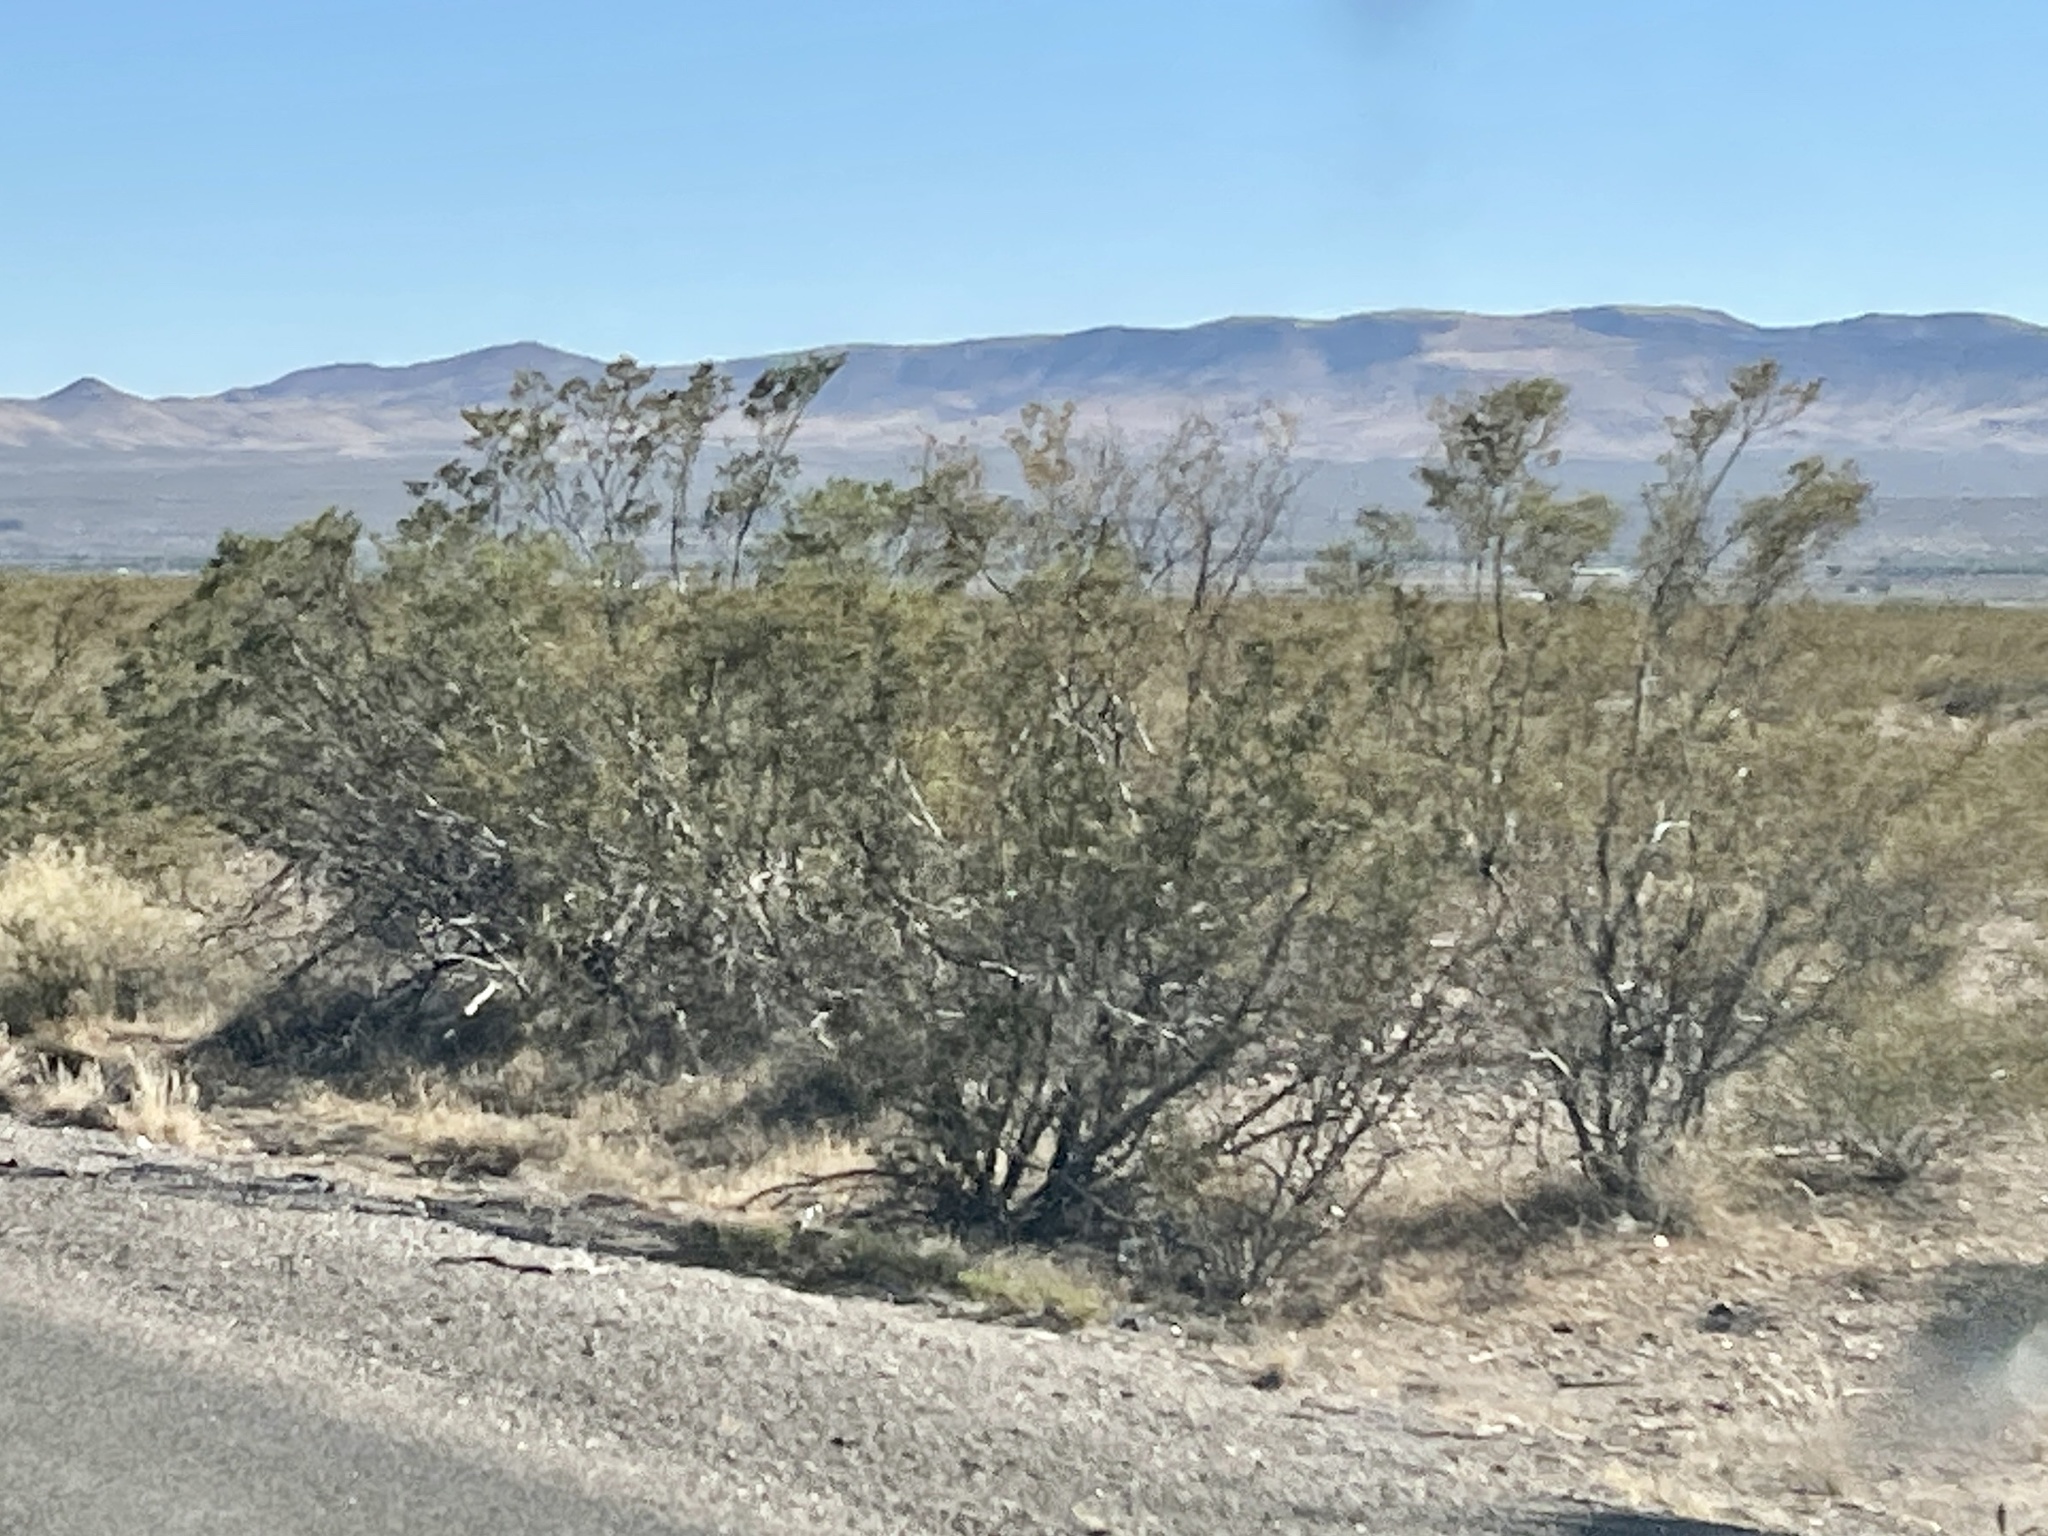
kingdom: Plantae
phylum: Tracheophyta
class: Magnoliopsida
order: Zygophyllales
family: Zygophyllaceae
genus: Larrea
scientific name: Larrea tridentata
